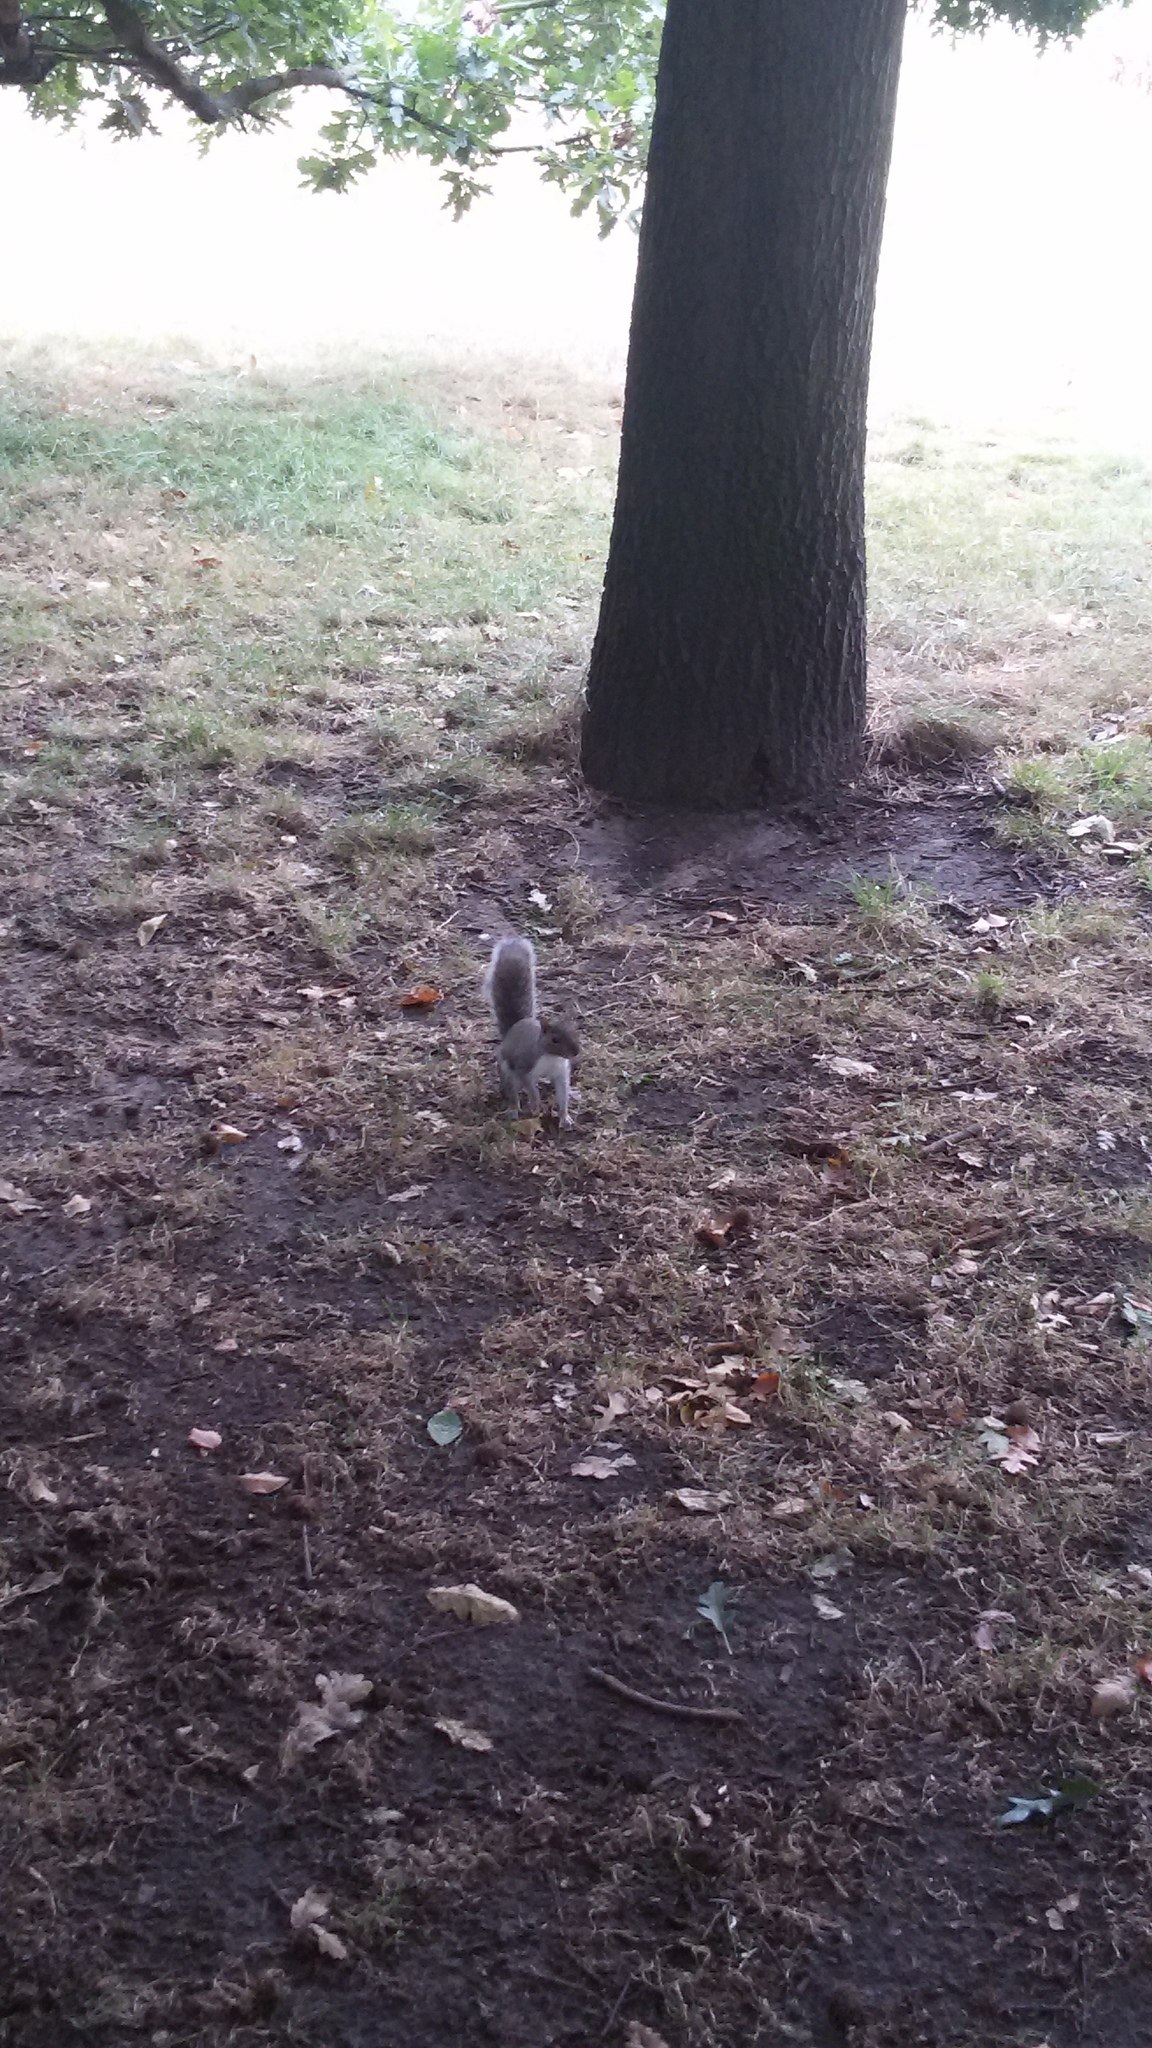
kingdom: Animalia
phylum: Chordata
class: Mammalia
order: Rodentia
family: Sciuridae
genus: Sciurus
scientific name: Sciurus carolinensis
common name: Eastern gray squirrel
